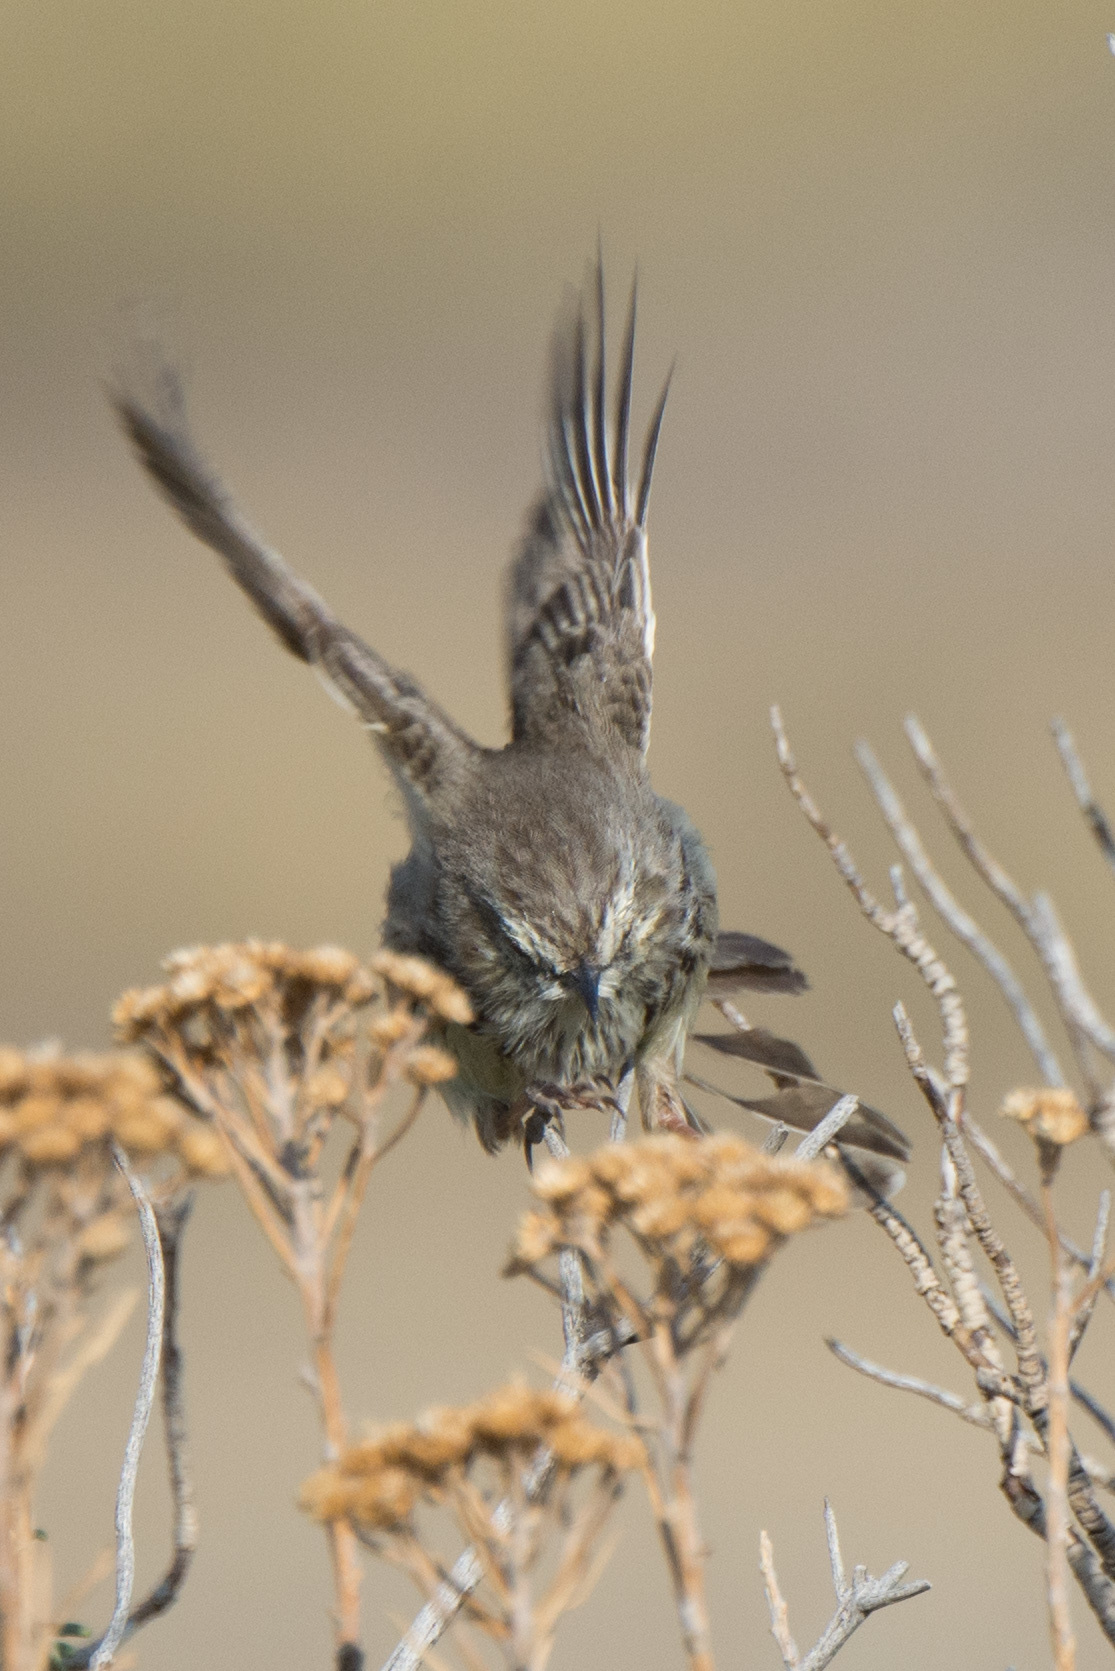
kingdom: Animalia
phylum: Chordata
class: Aves
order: Passeriformes
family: Cisticolidae
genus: Prinia
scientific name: Prinia maculosa
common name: Karoo prinia
